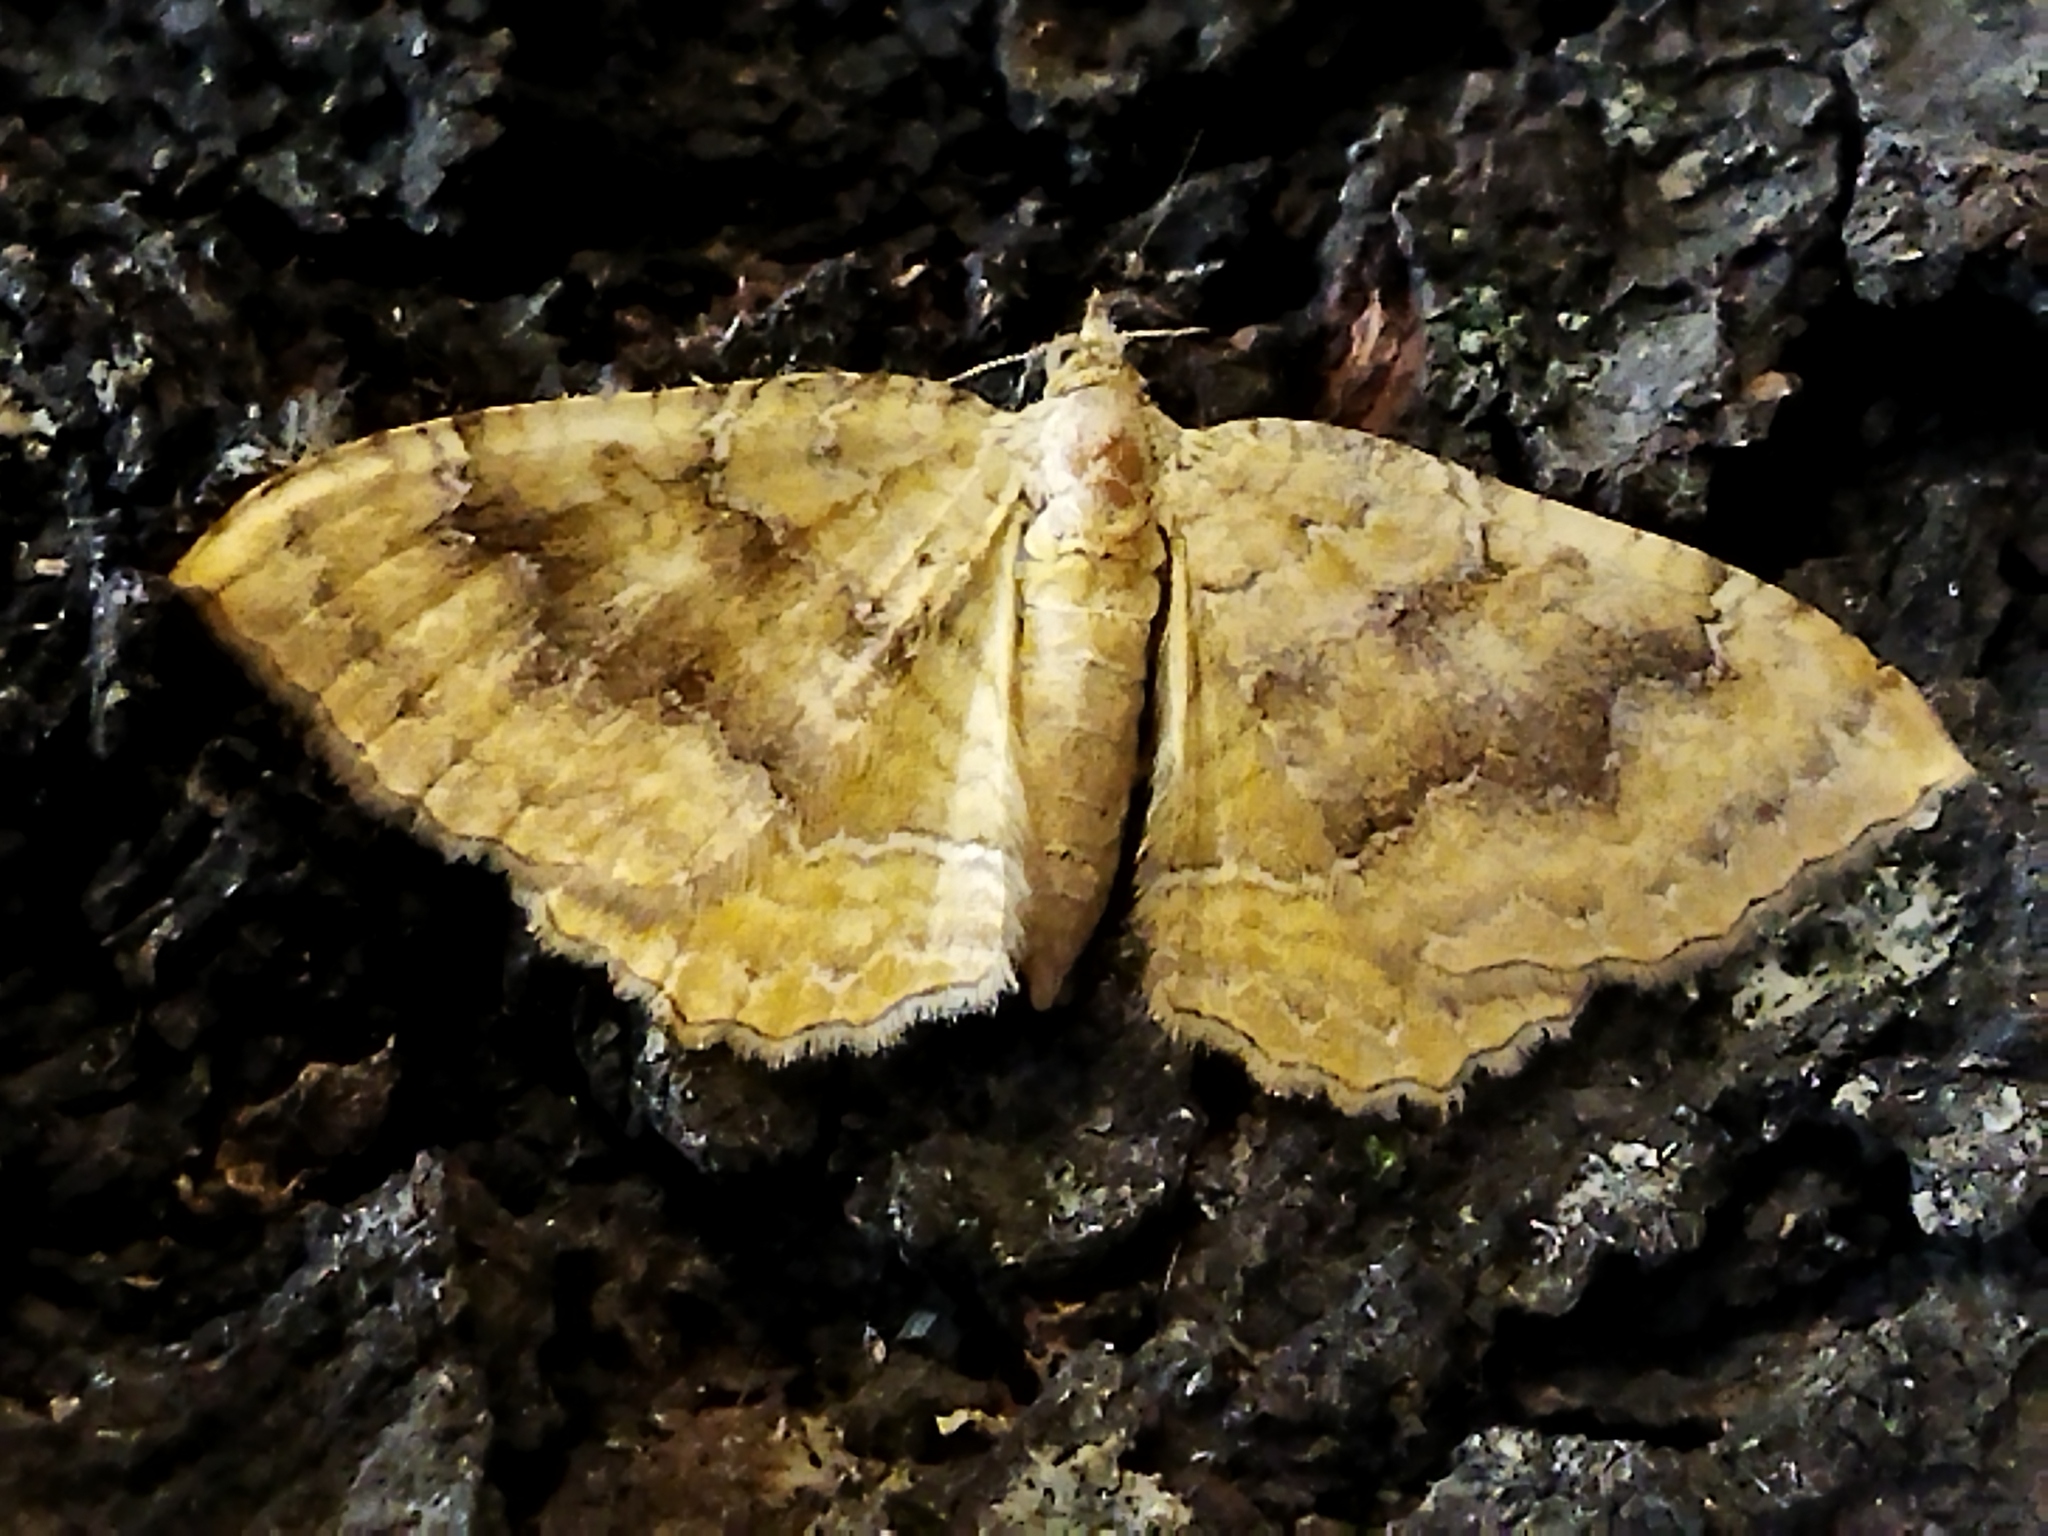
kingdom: Animalia
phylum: Arthropoda
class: Insecta
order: Lepidoptera
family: Geometridae
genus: Camptogramma
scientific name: Camptogramma bilineata
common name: Yellow shell
